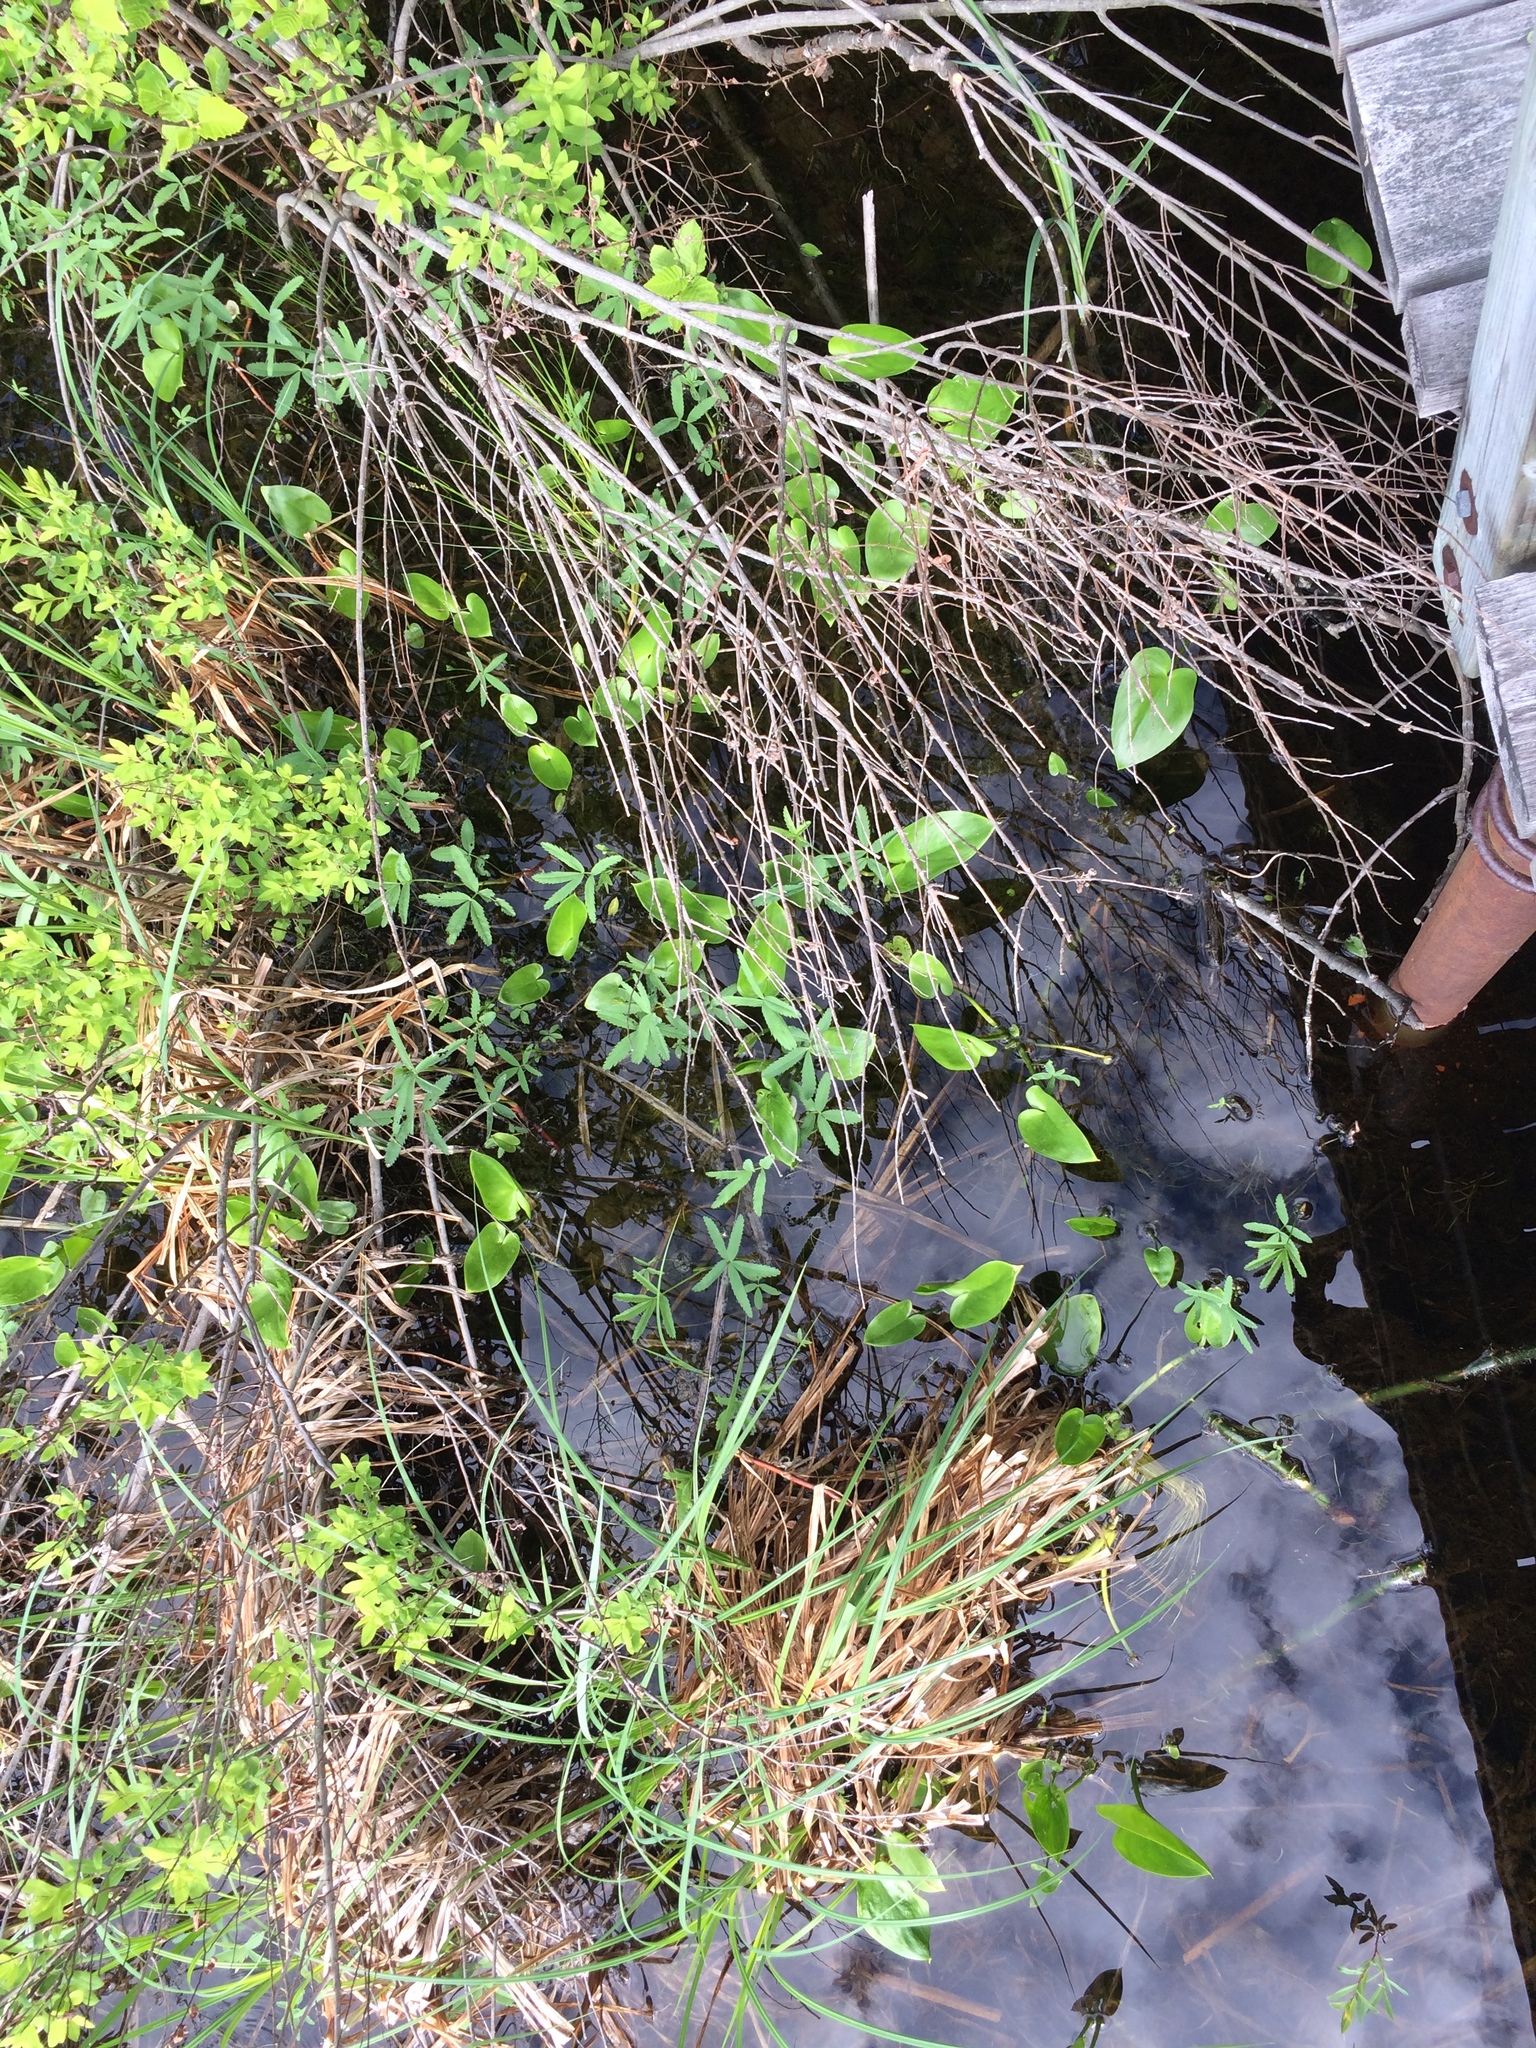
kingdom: Plantae
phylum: Tracheophyta
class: Liliopsida
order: Alismatales
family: Araceae
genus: Calla
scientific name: Calla palustris
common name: Bog arum
